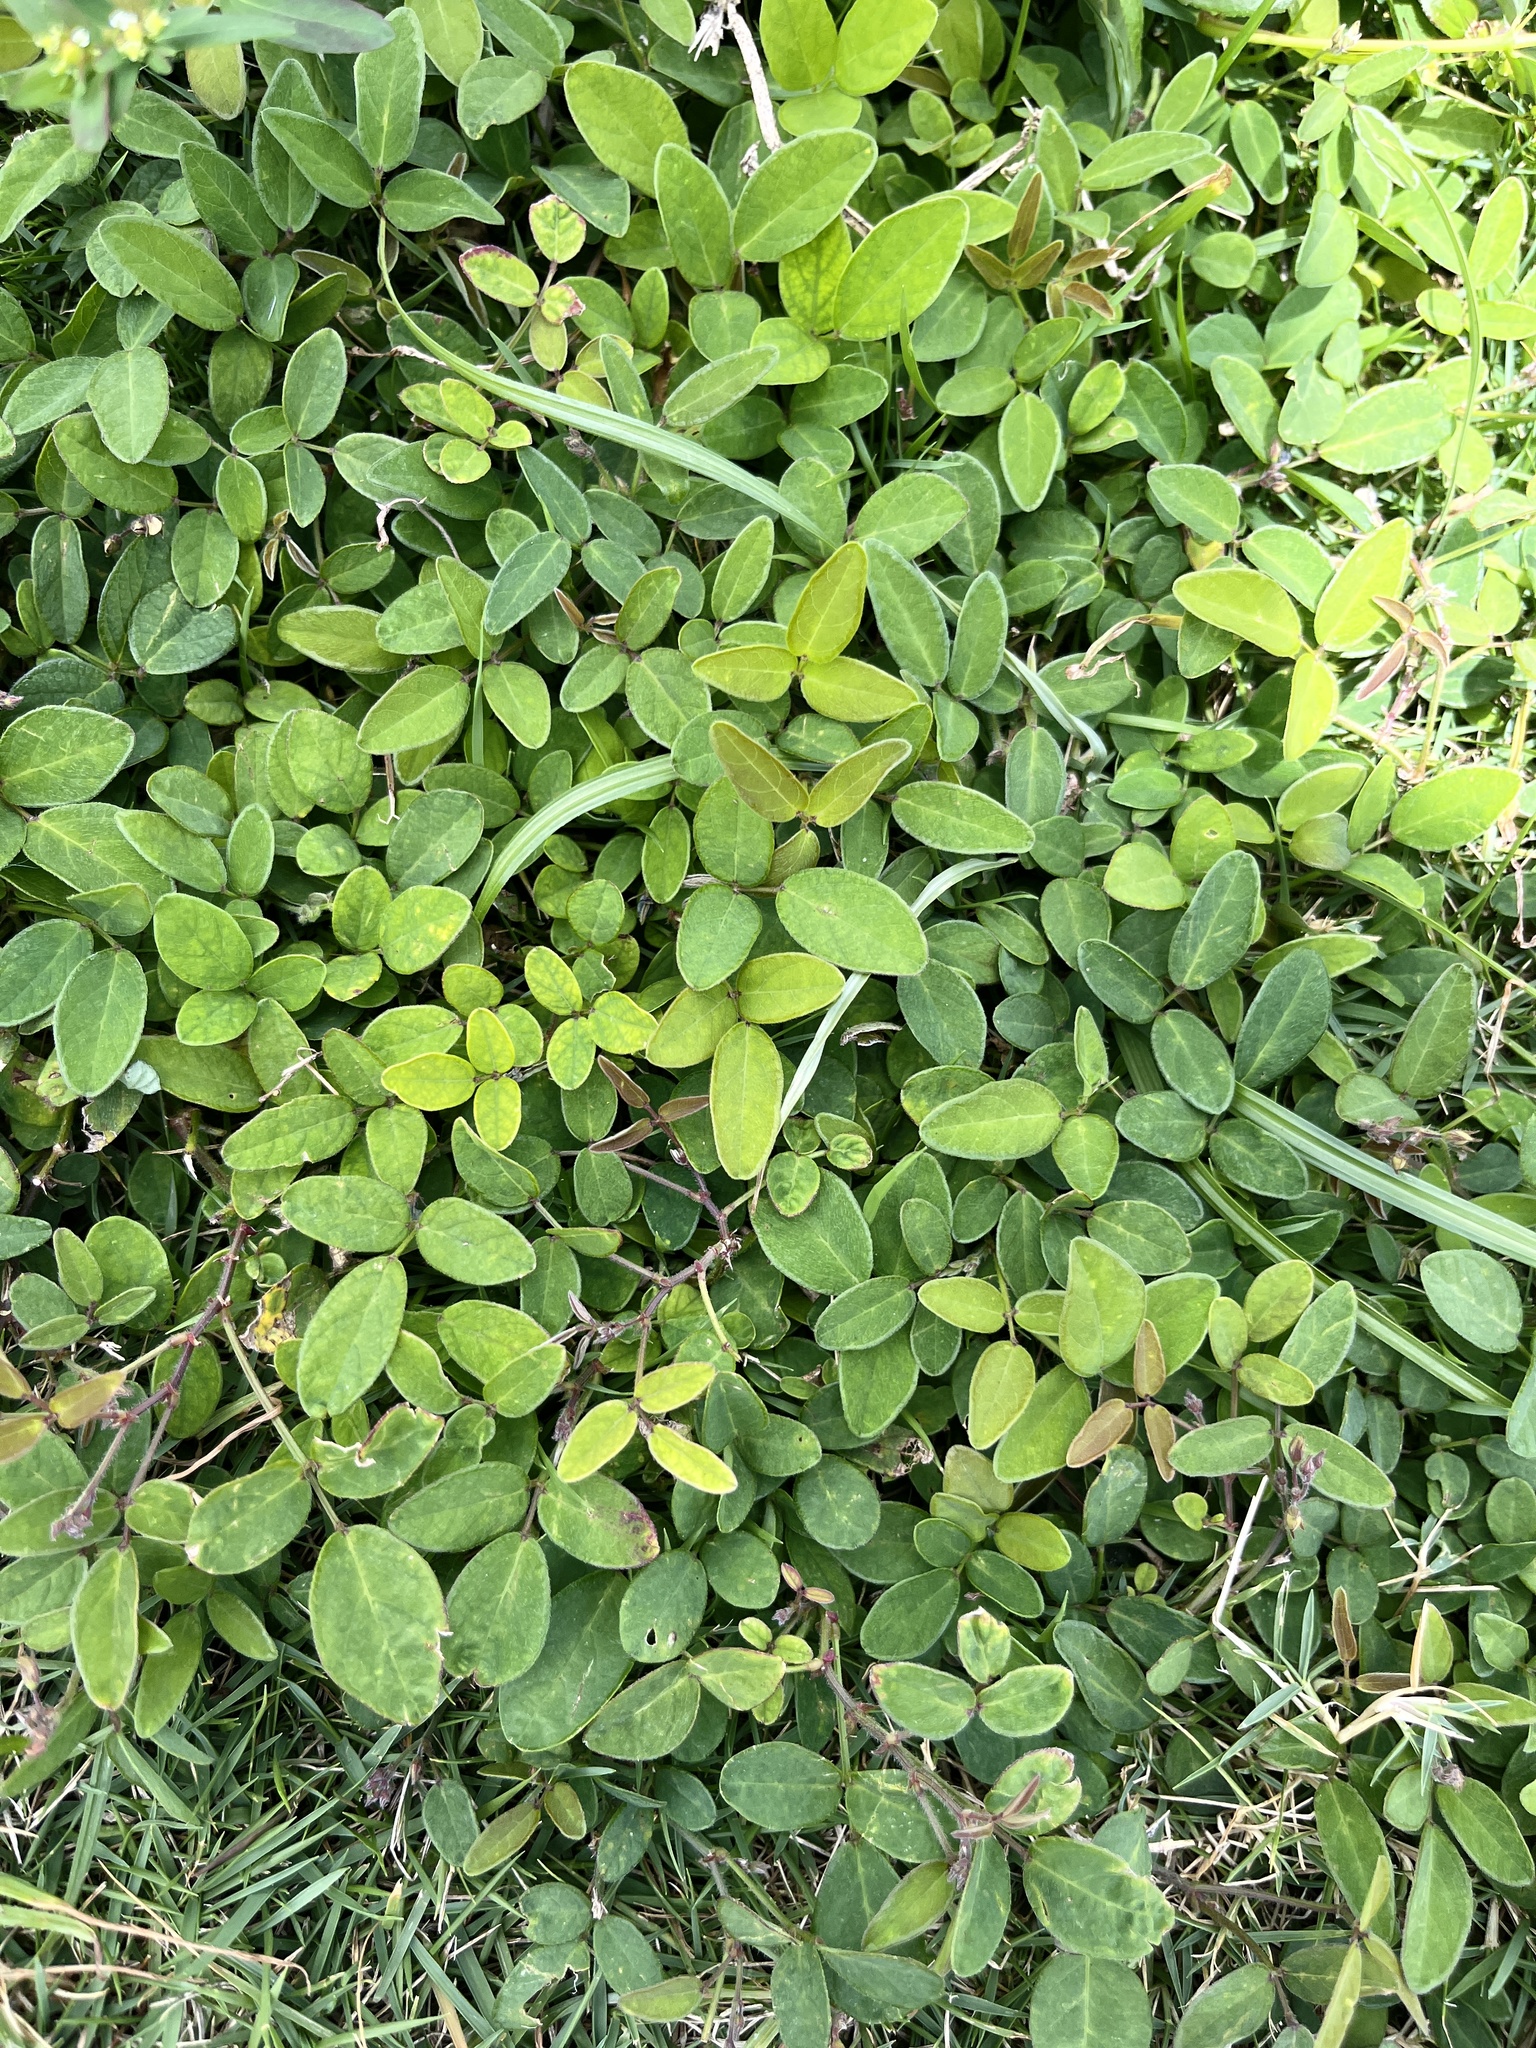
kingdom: Plantae
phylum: Tracheophyta
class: Magnoliopsida
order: Fabales
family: Fabaceae
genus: Desmodium
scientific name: Desmodium incanum
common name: Tickclover
